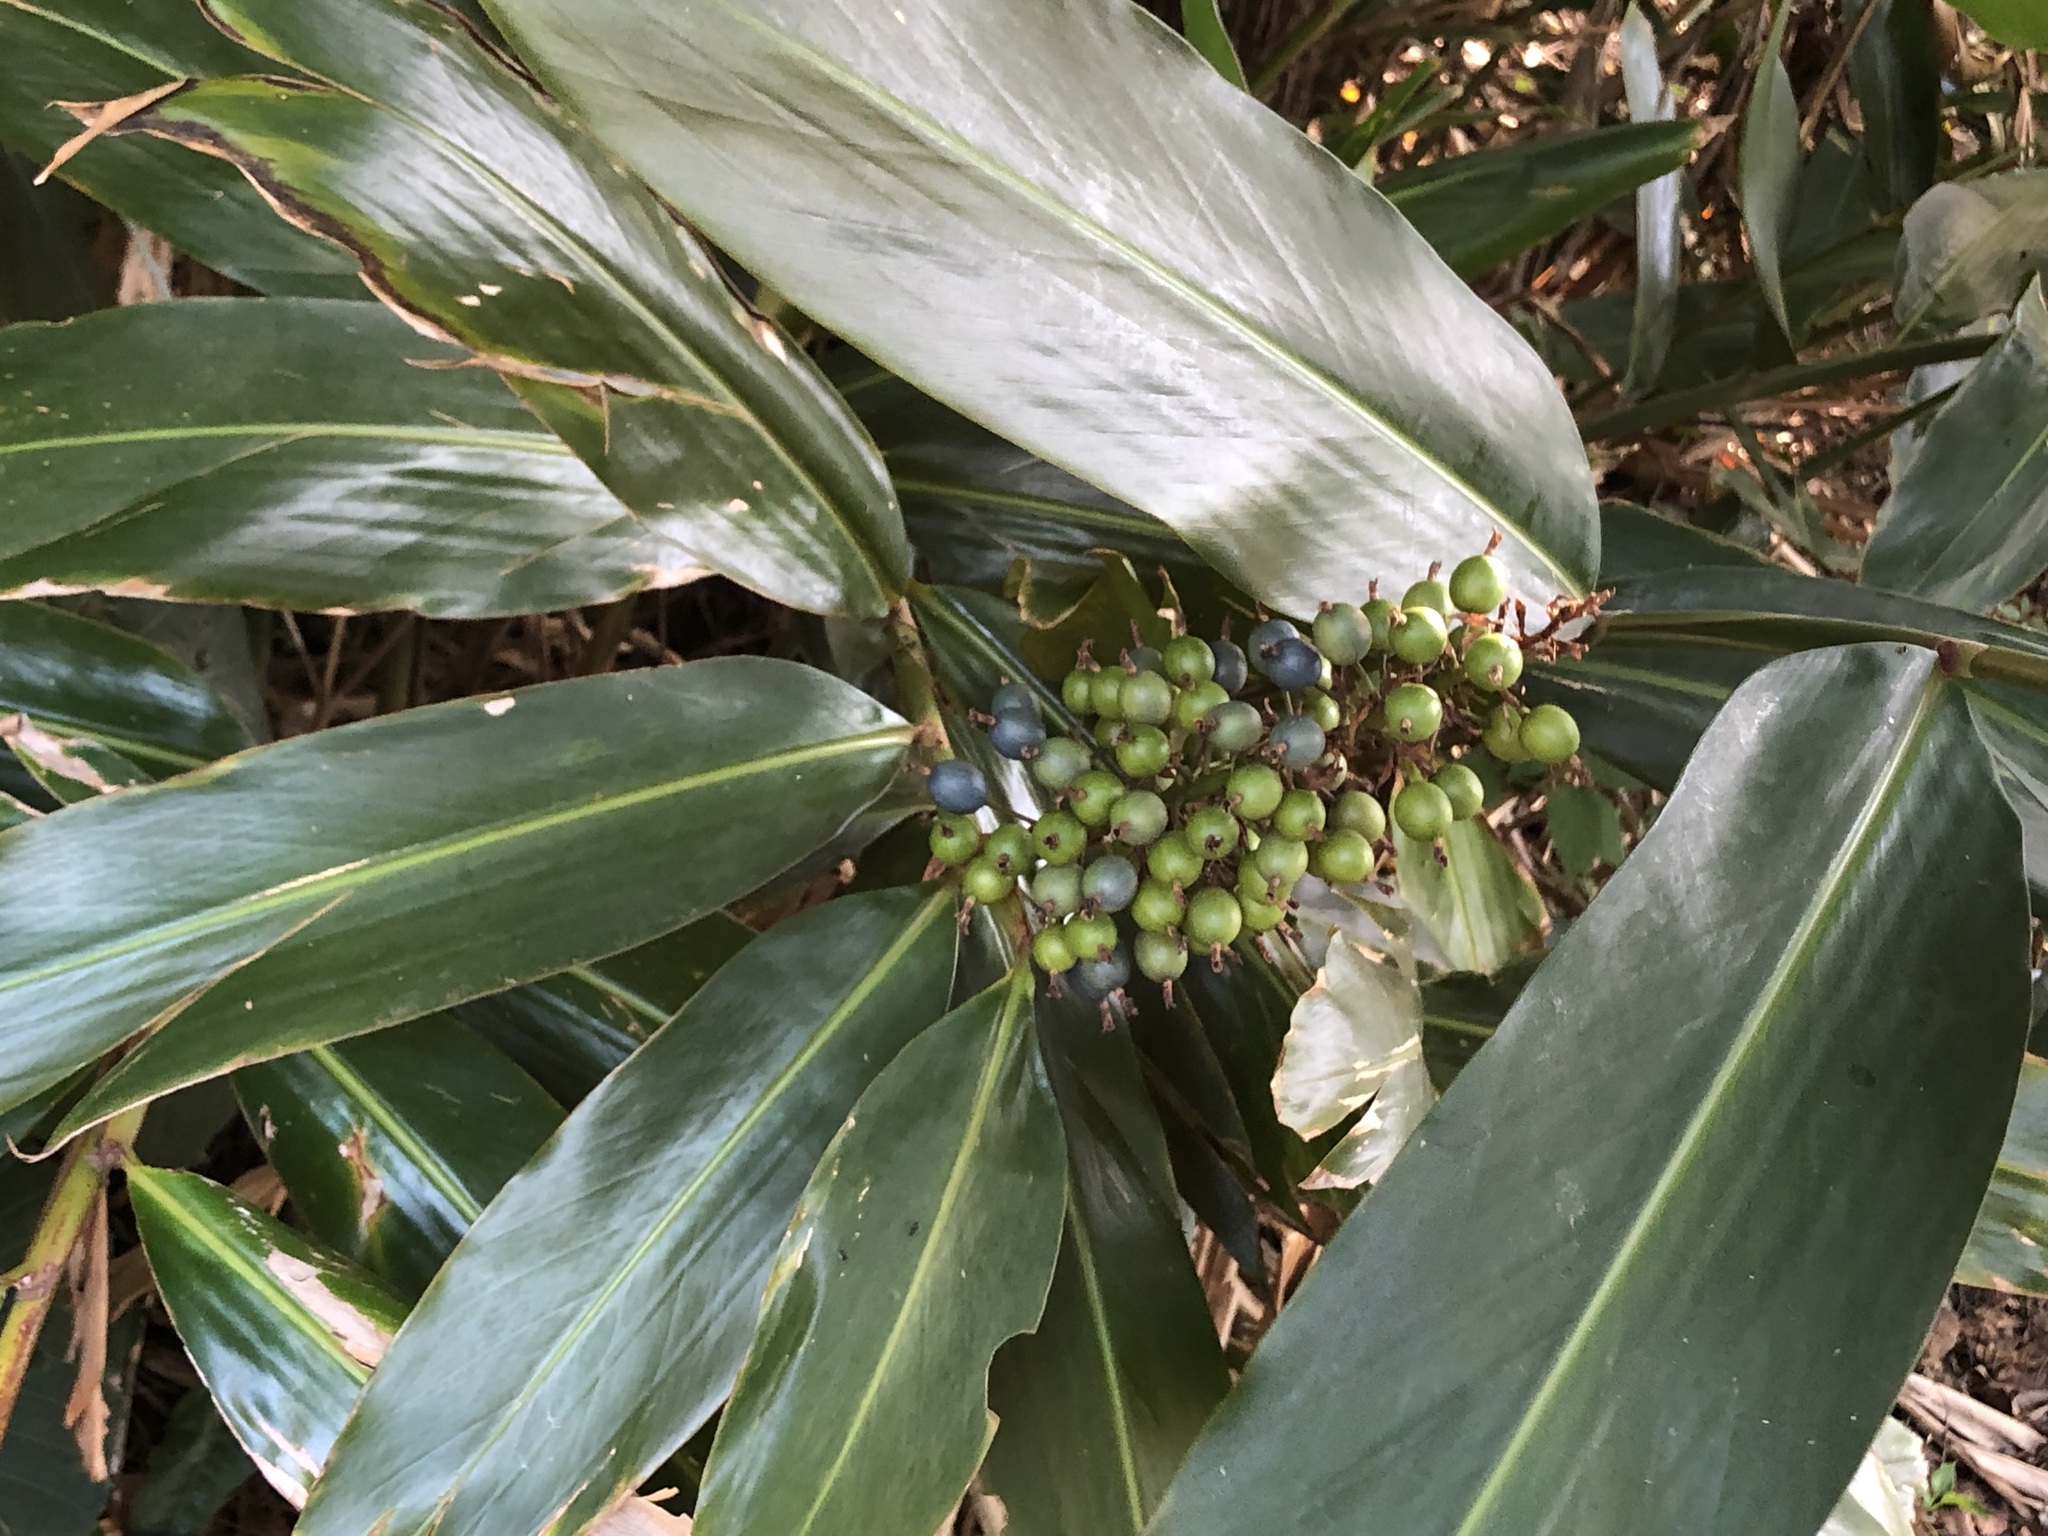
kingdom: Plantae
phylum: Tracheophyta
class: Liliopsida
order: Zingiberales
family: Zingiberaceae
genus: Alpinia
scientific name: Alpinia caerulea
